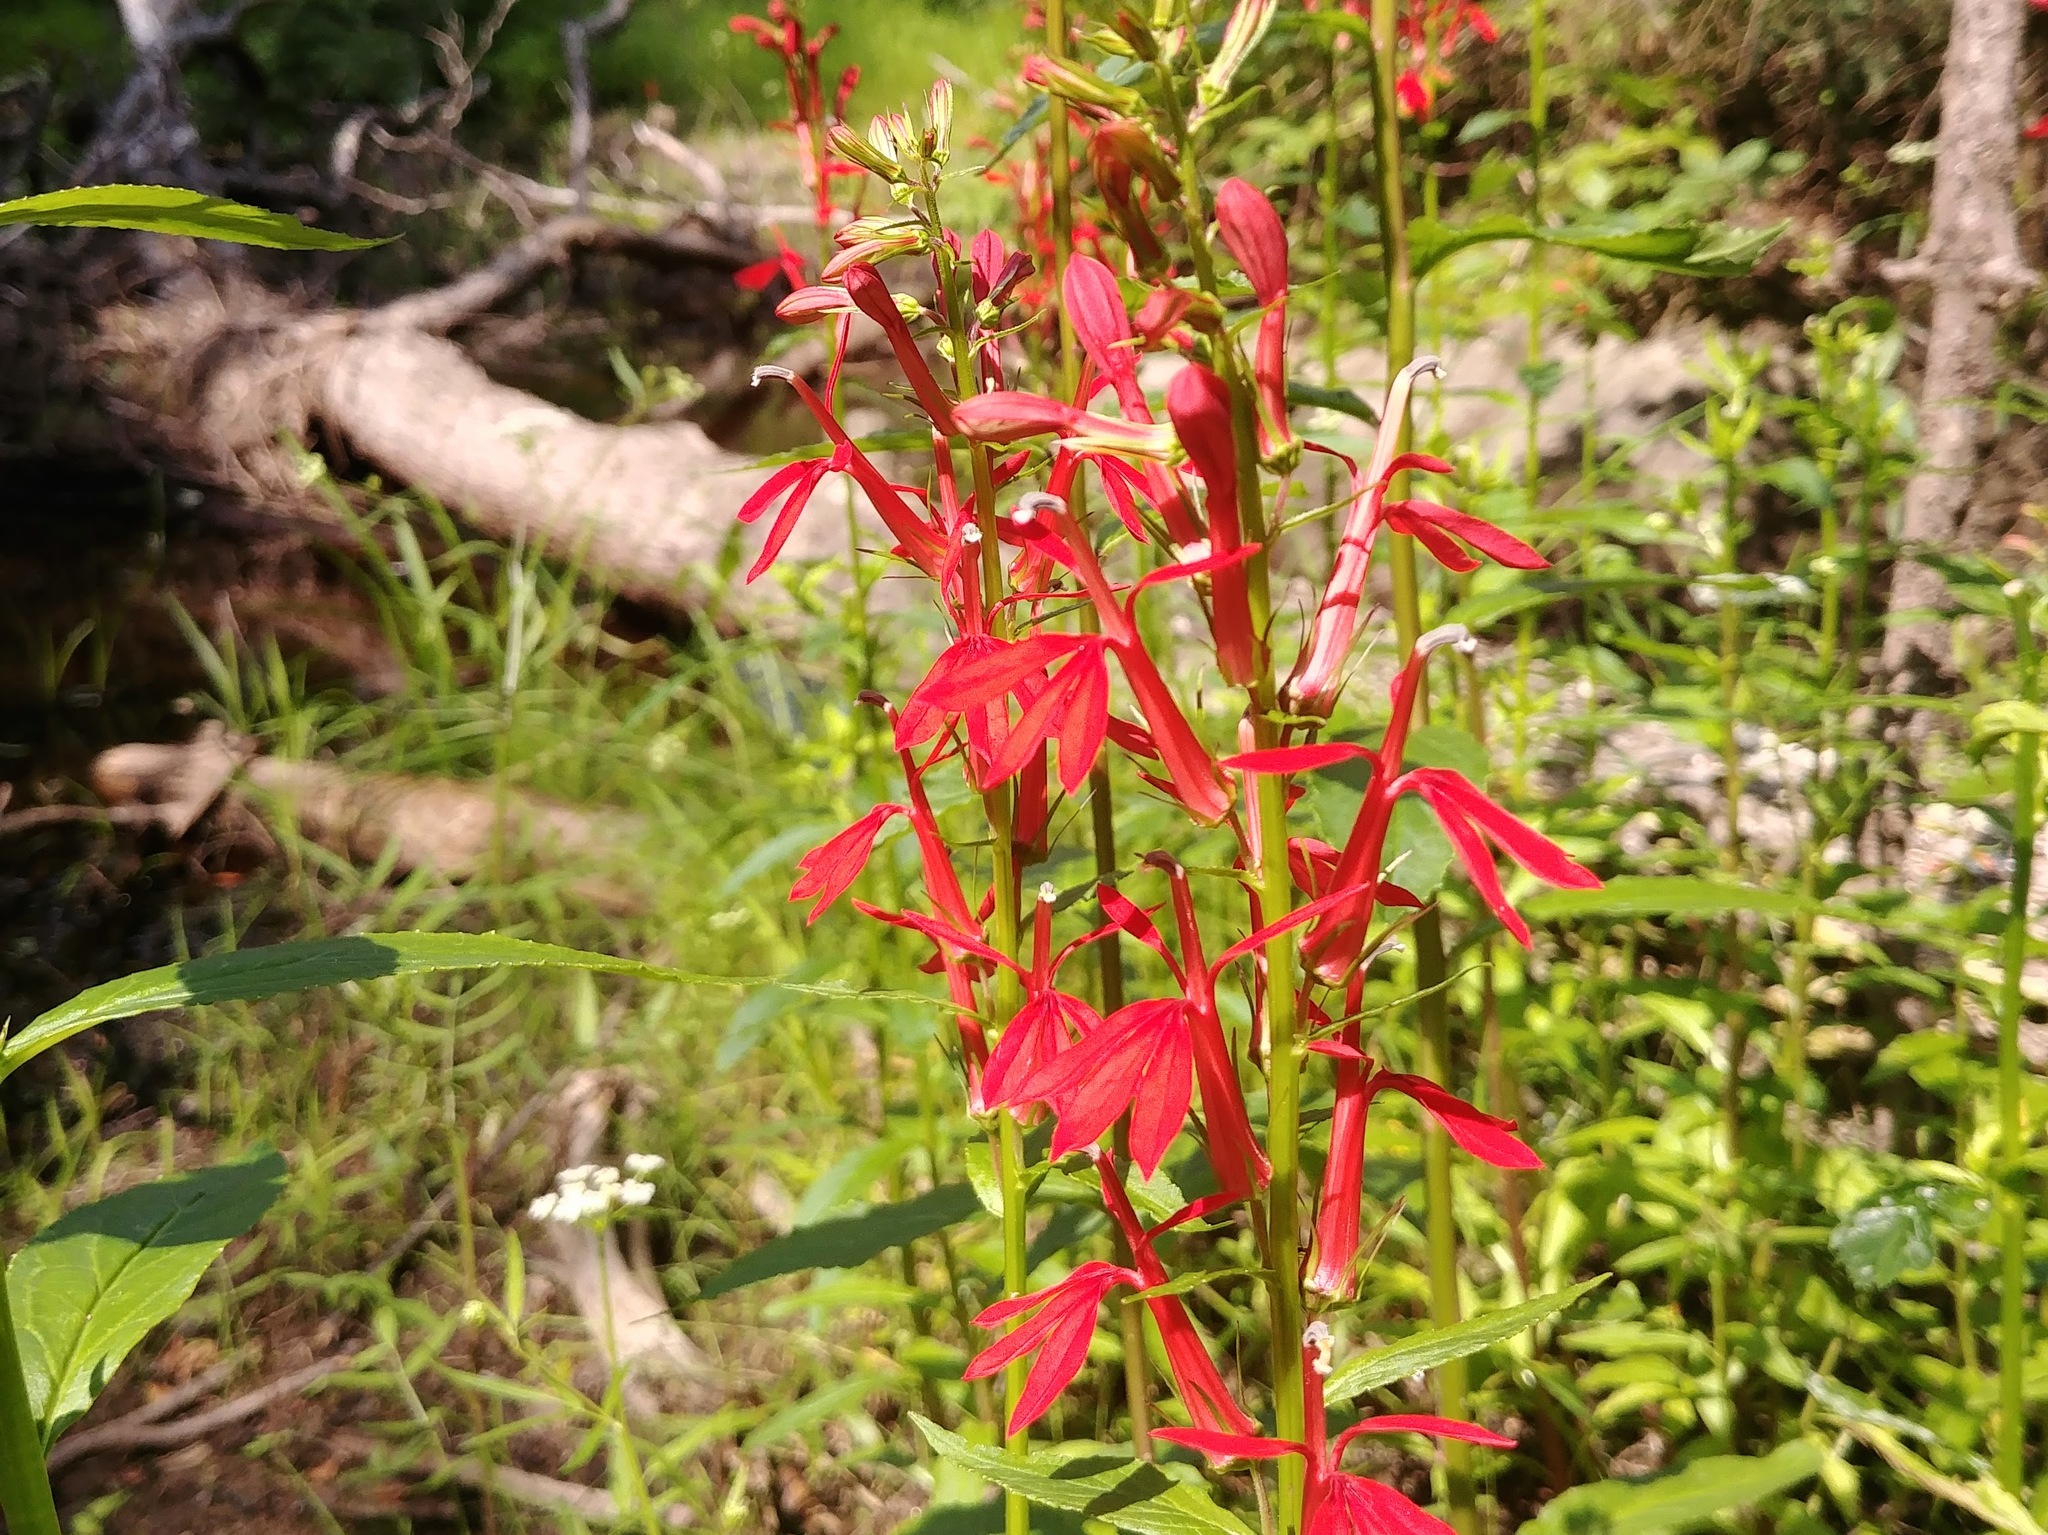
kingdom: Plantae
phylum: Tracheophyta
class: Magnoliopsida
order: Asterales
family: Campanulaceae
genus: Lobelia
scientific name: Lobelia cardinalis
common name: Cardinal flower
